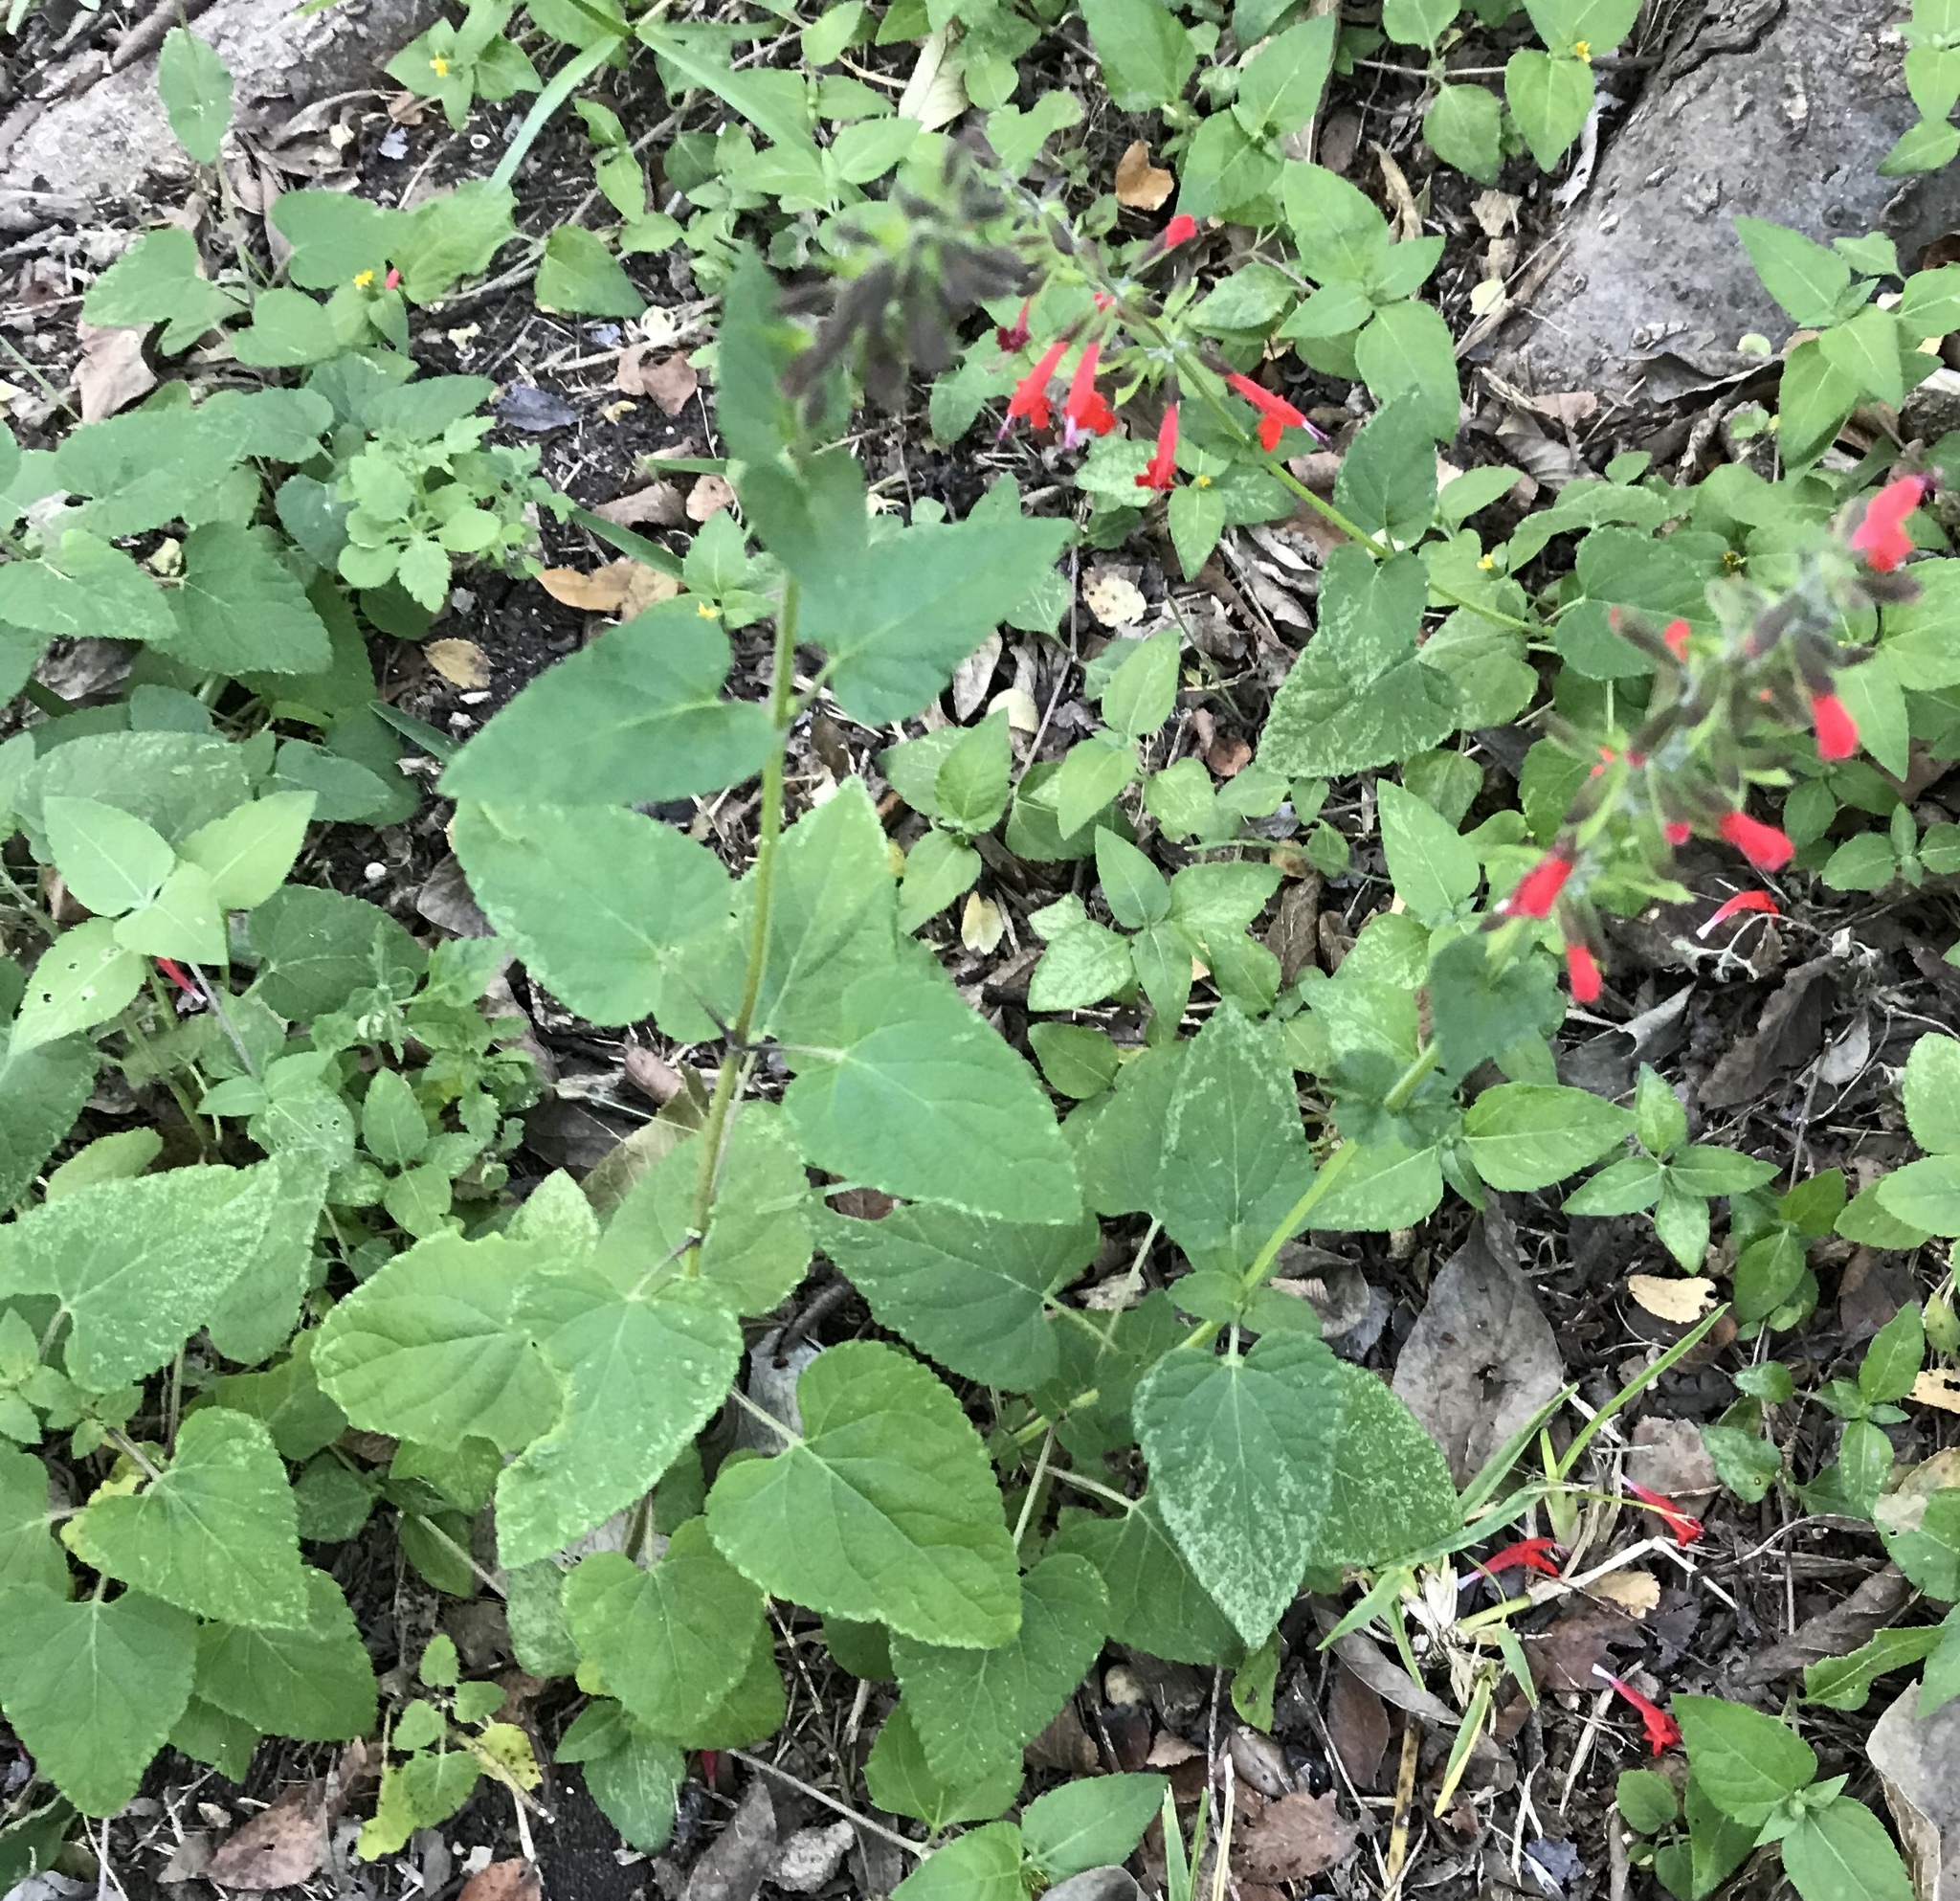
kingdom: Plantae
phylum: Tracheophyta
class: Magnoliopsida
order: Lamiales
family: Lamiaceae
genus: Salvia
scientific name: Salvia coccinea
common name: Blood sage
